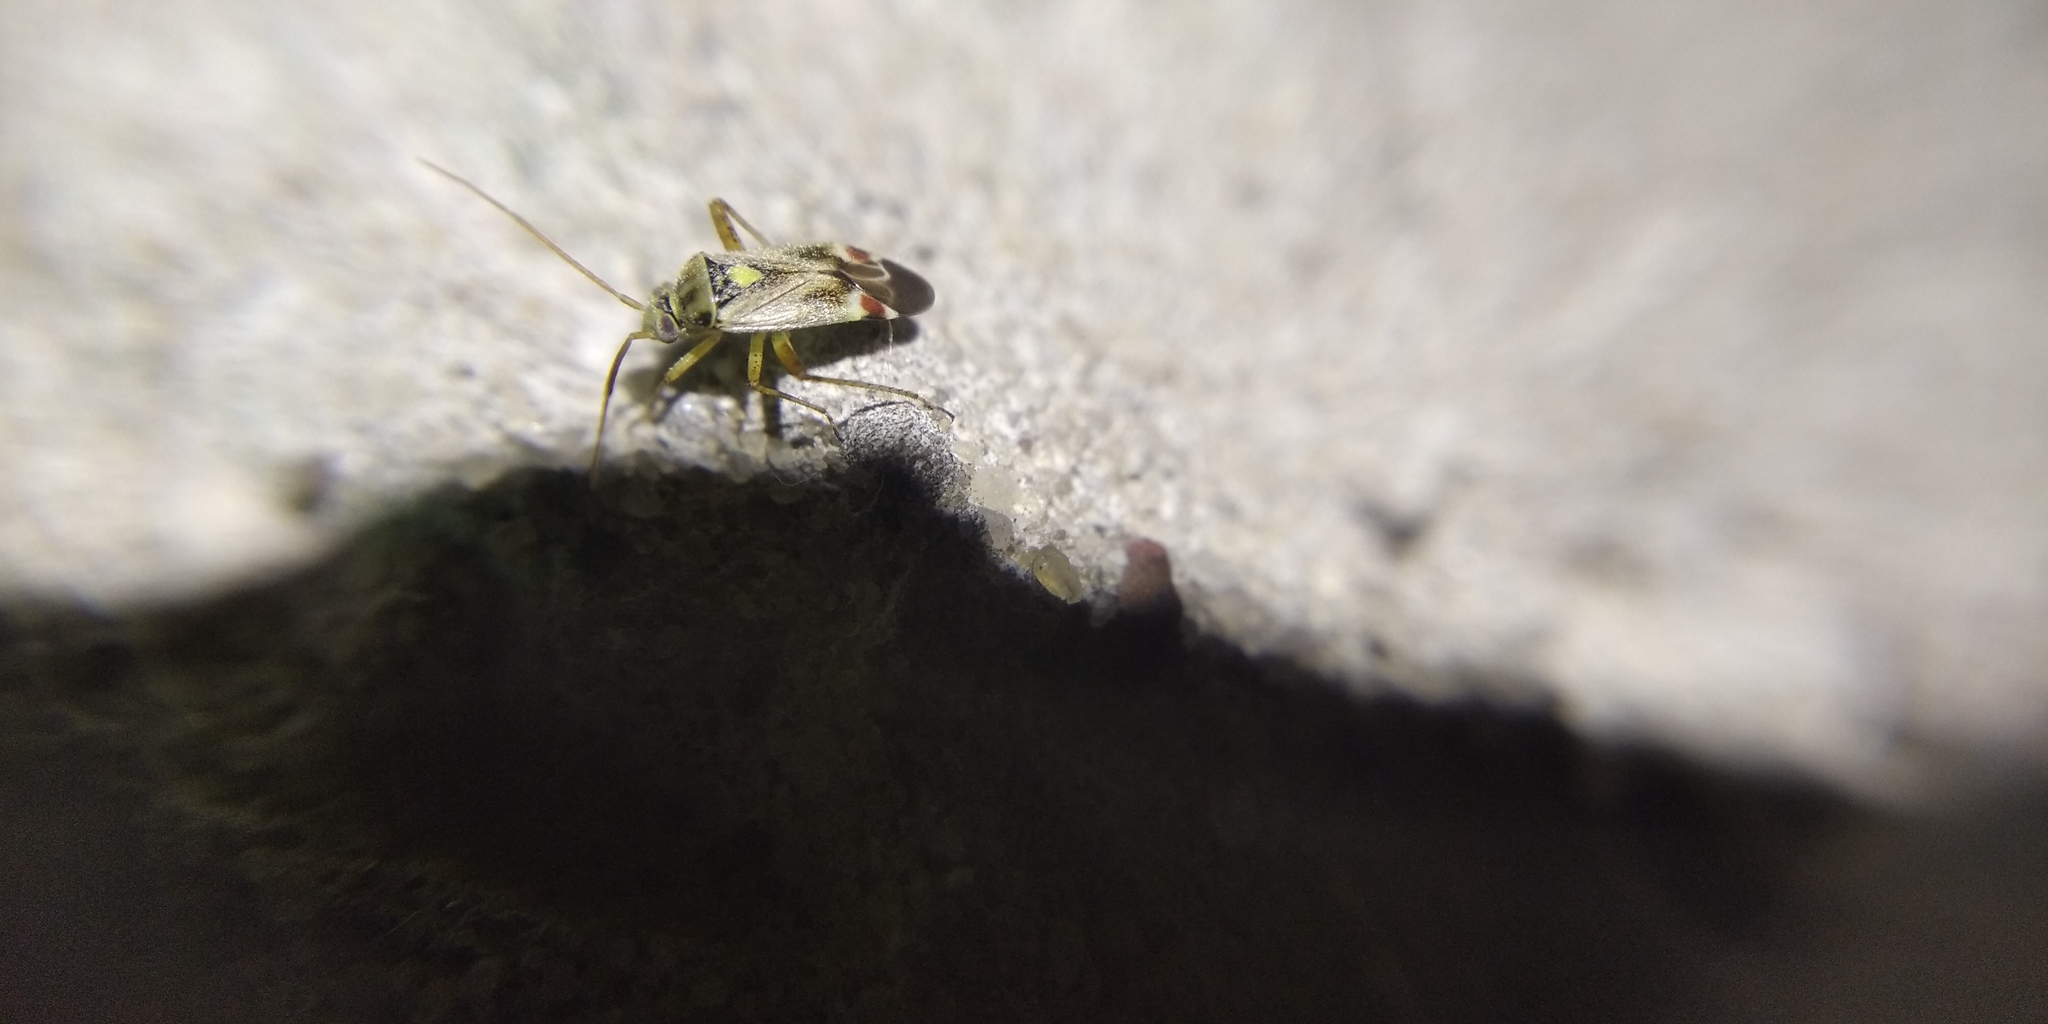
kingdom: Animalia
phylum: Arthropoda
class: Insecta
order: Hemiptera
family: Miridae
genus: Polymerus
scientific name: Polymerus vulneratus
